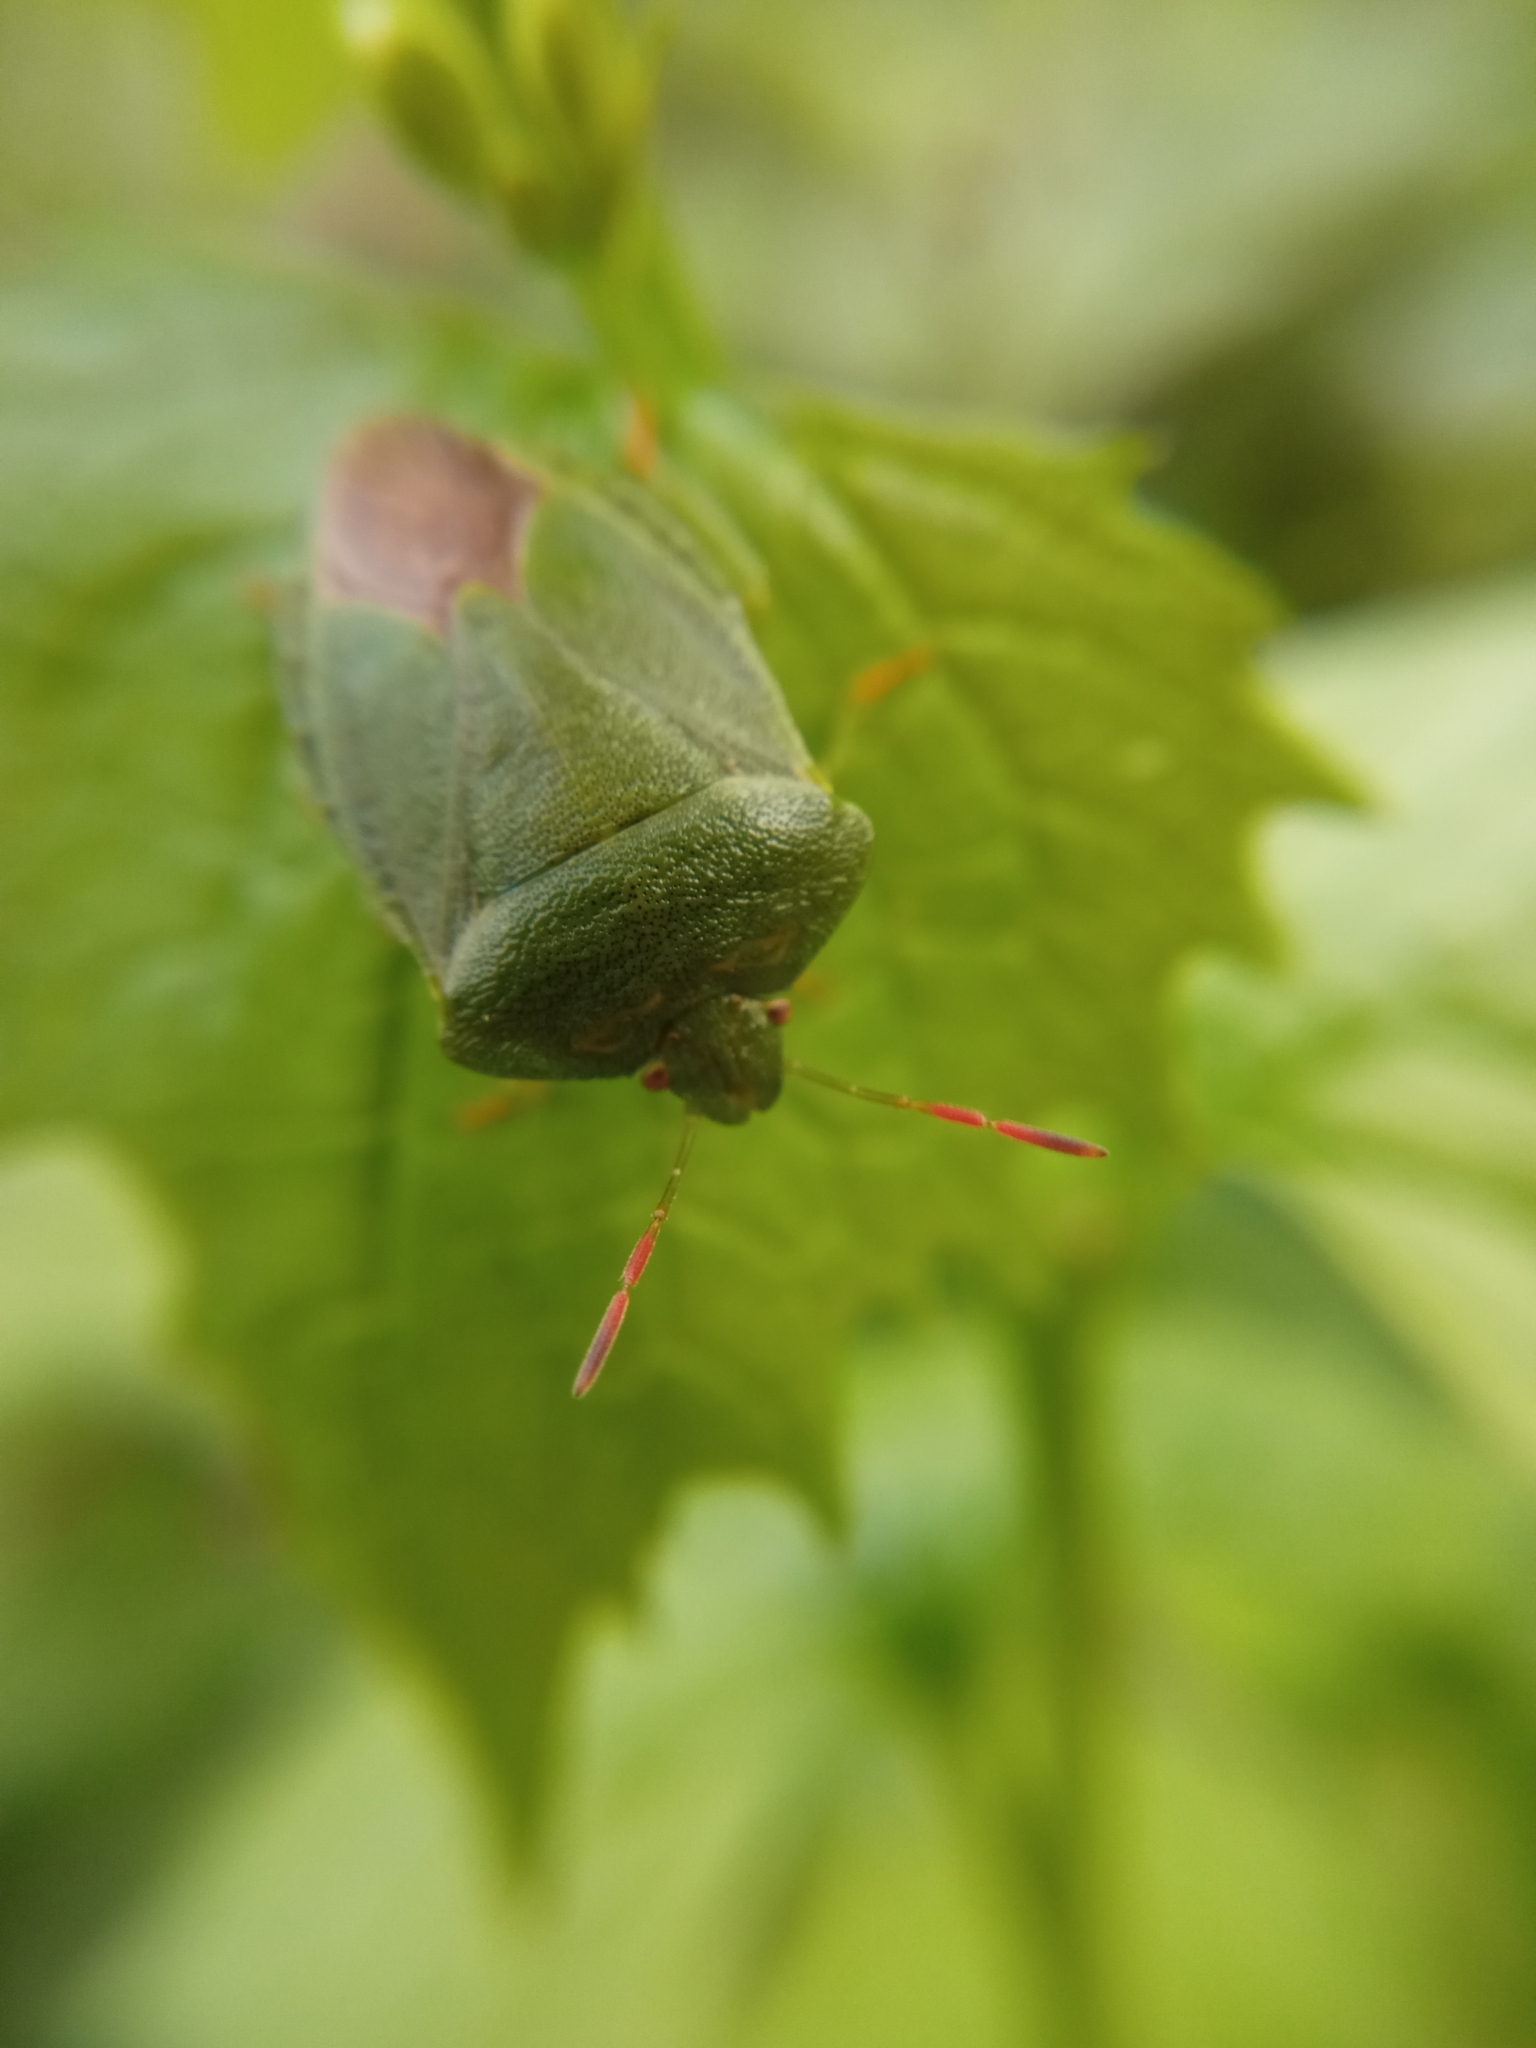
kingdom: Animalia
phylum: Arthropoda
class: Insecta
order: Hemiptera
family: Pentatomidae
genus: Palomena
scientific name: Palomena prasina
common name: Green shieldbug
